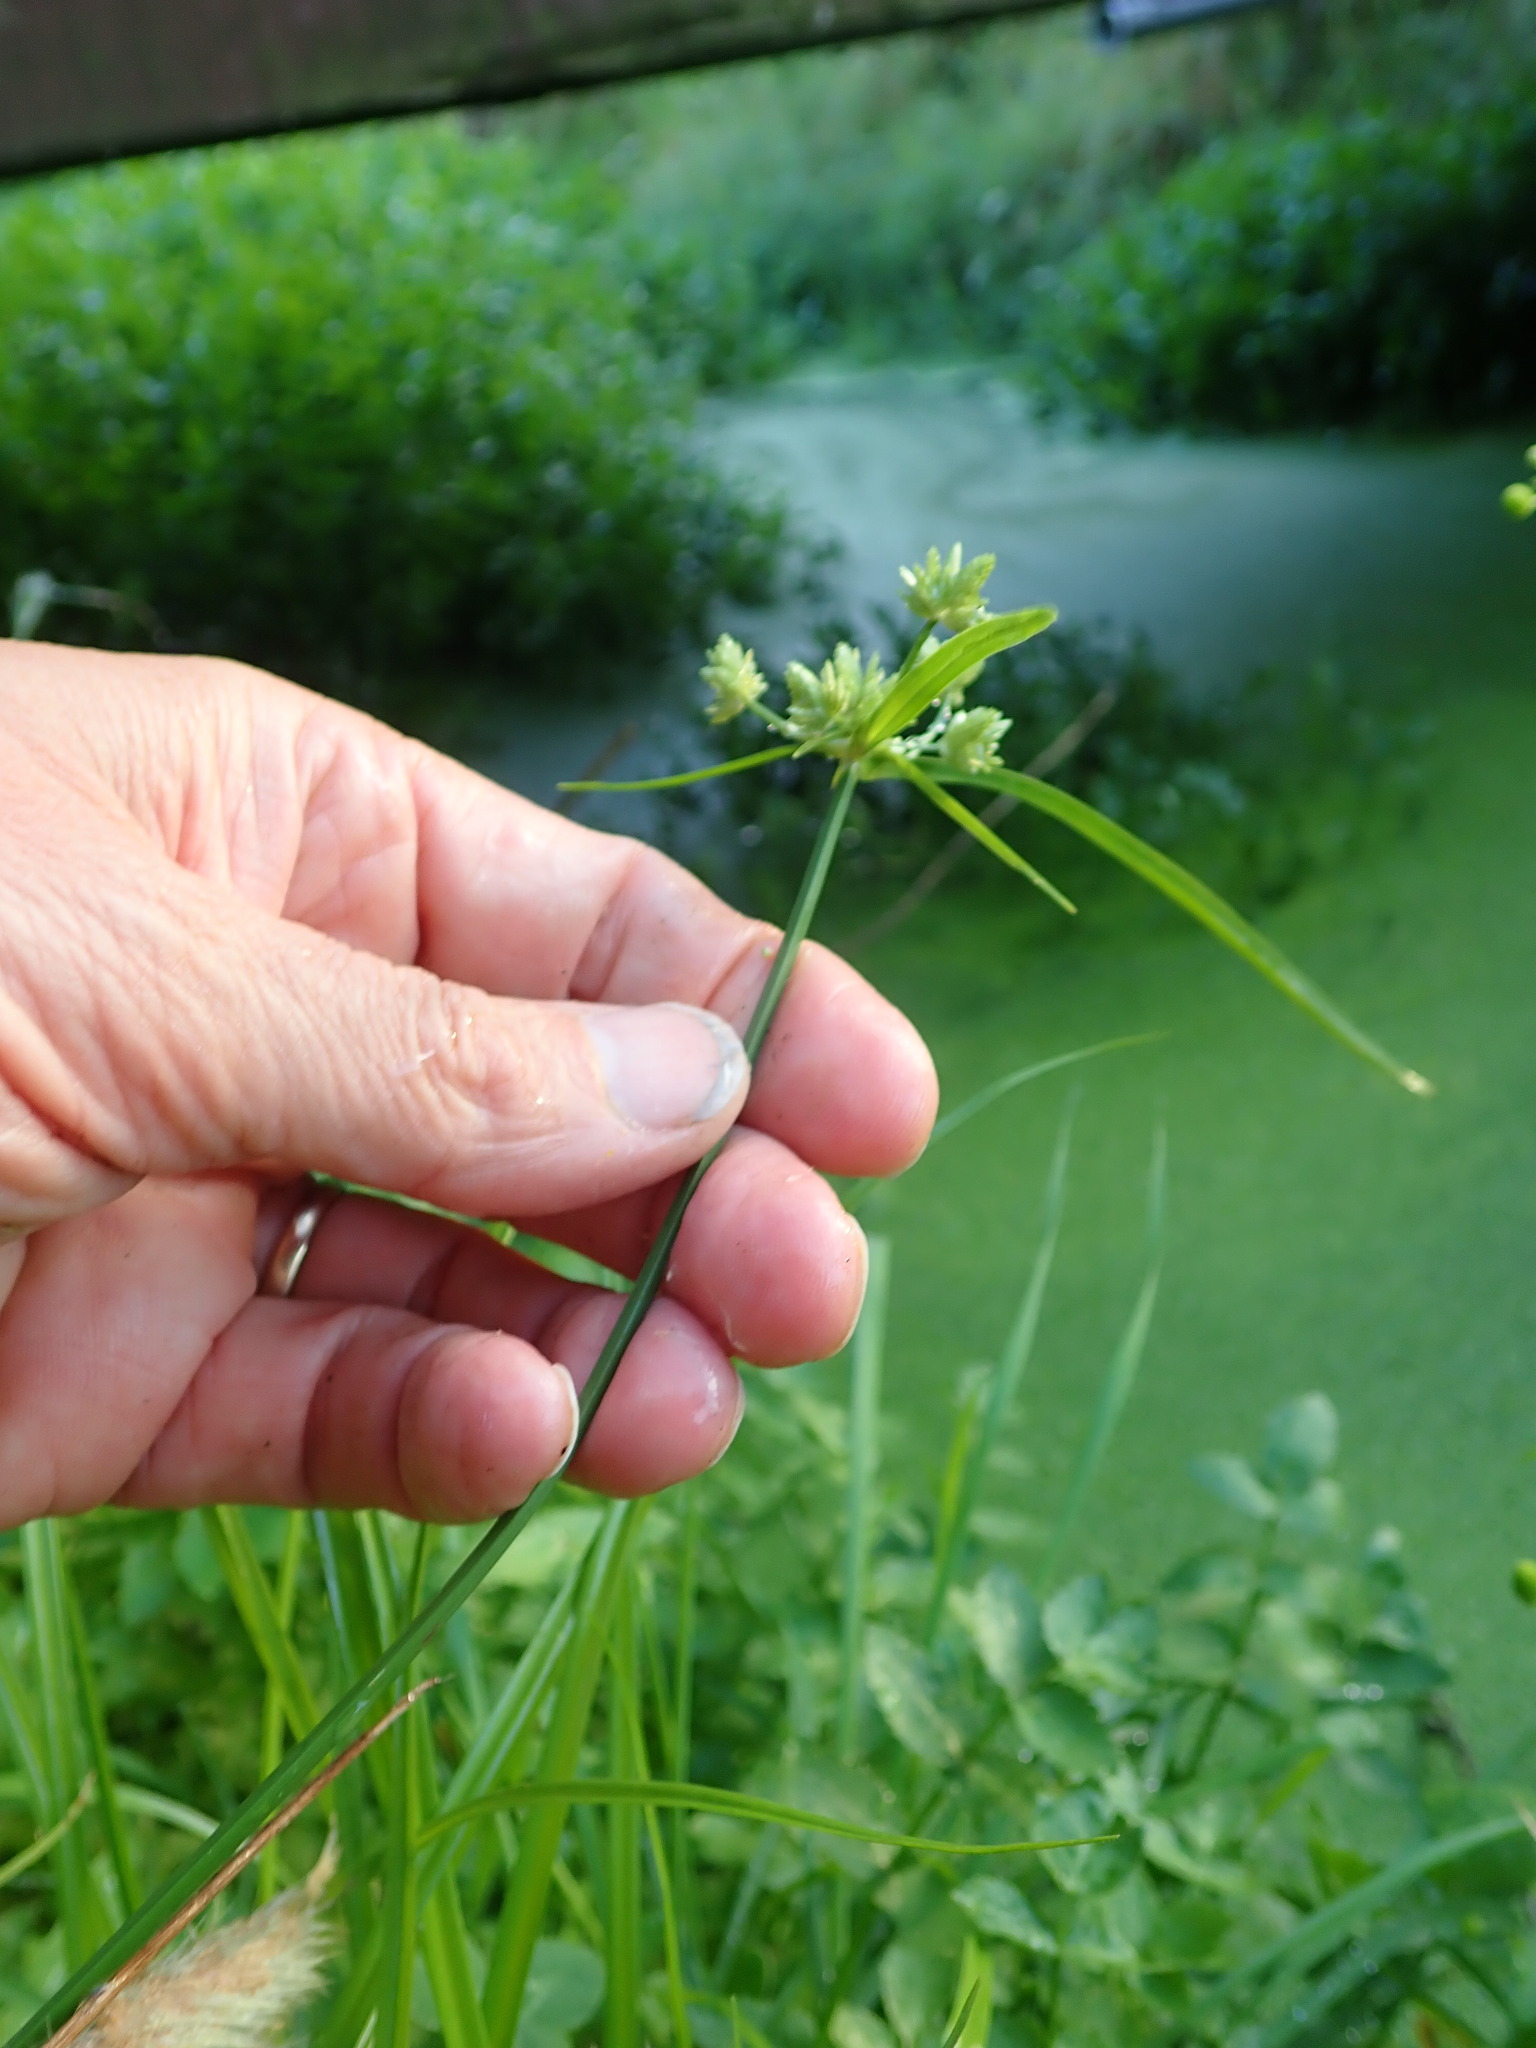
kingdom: Plantae
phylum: Tracheophyta
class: Liliopsida
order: Poales
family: Cyperaceae
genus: Cyperus
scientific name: Cyperus eragrostis
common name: Tall flatsedge
